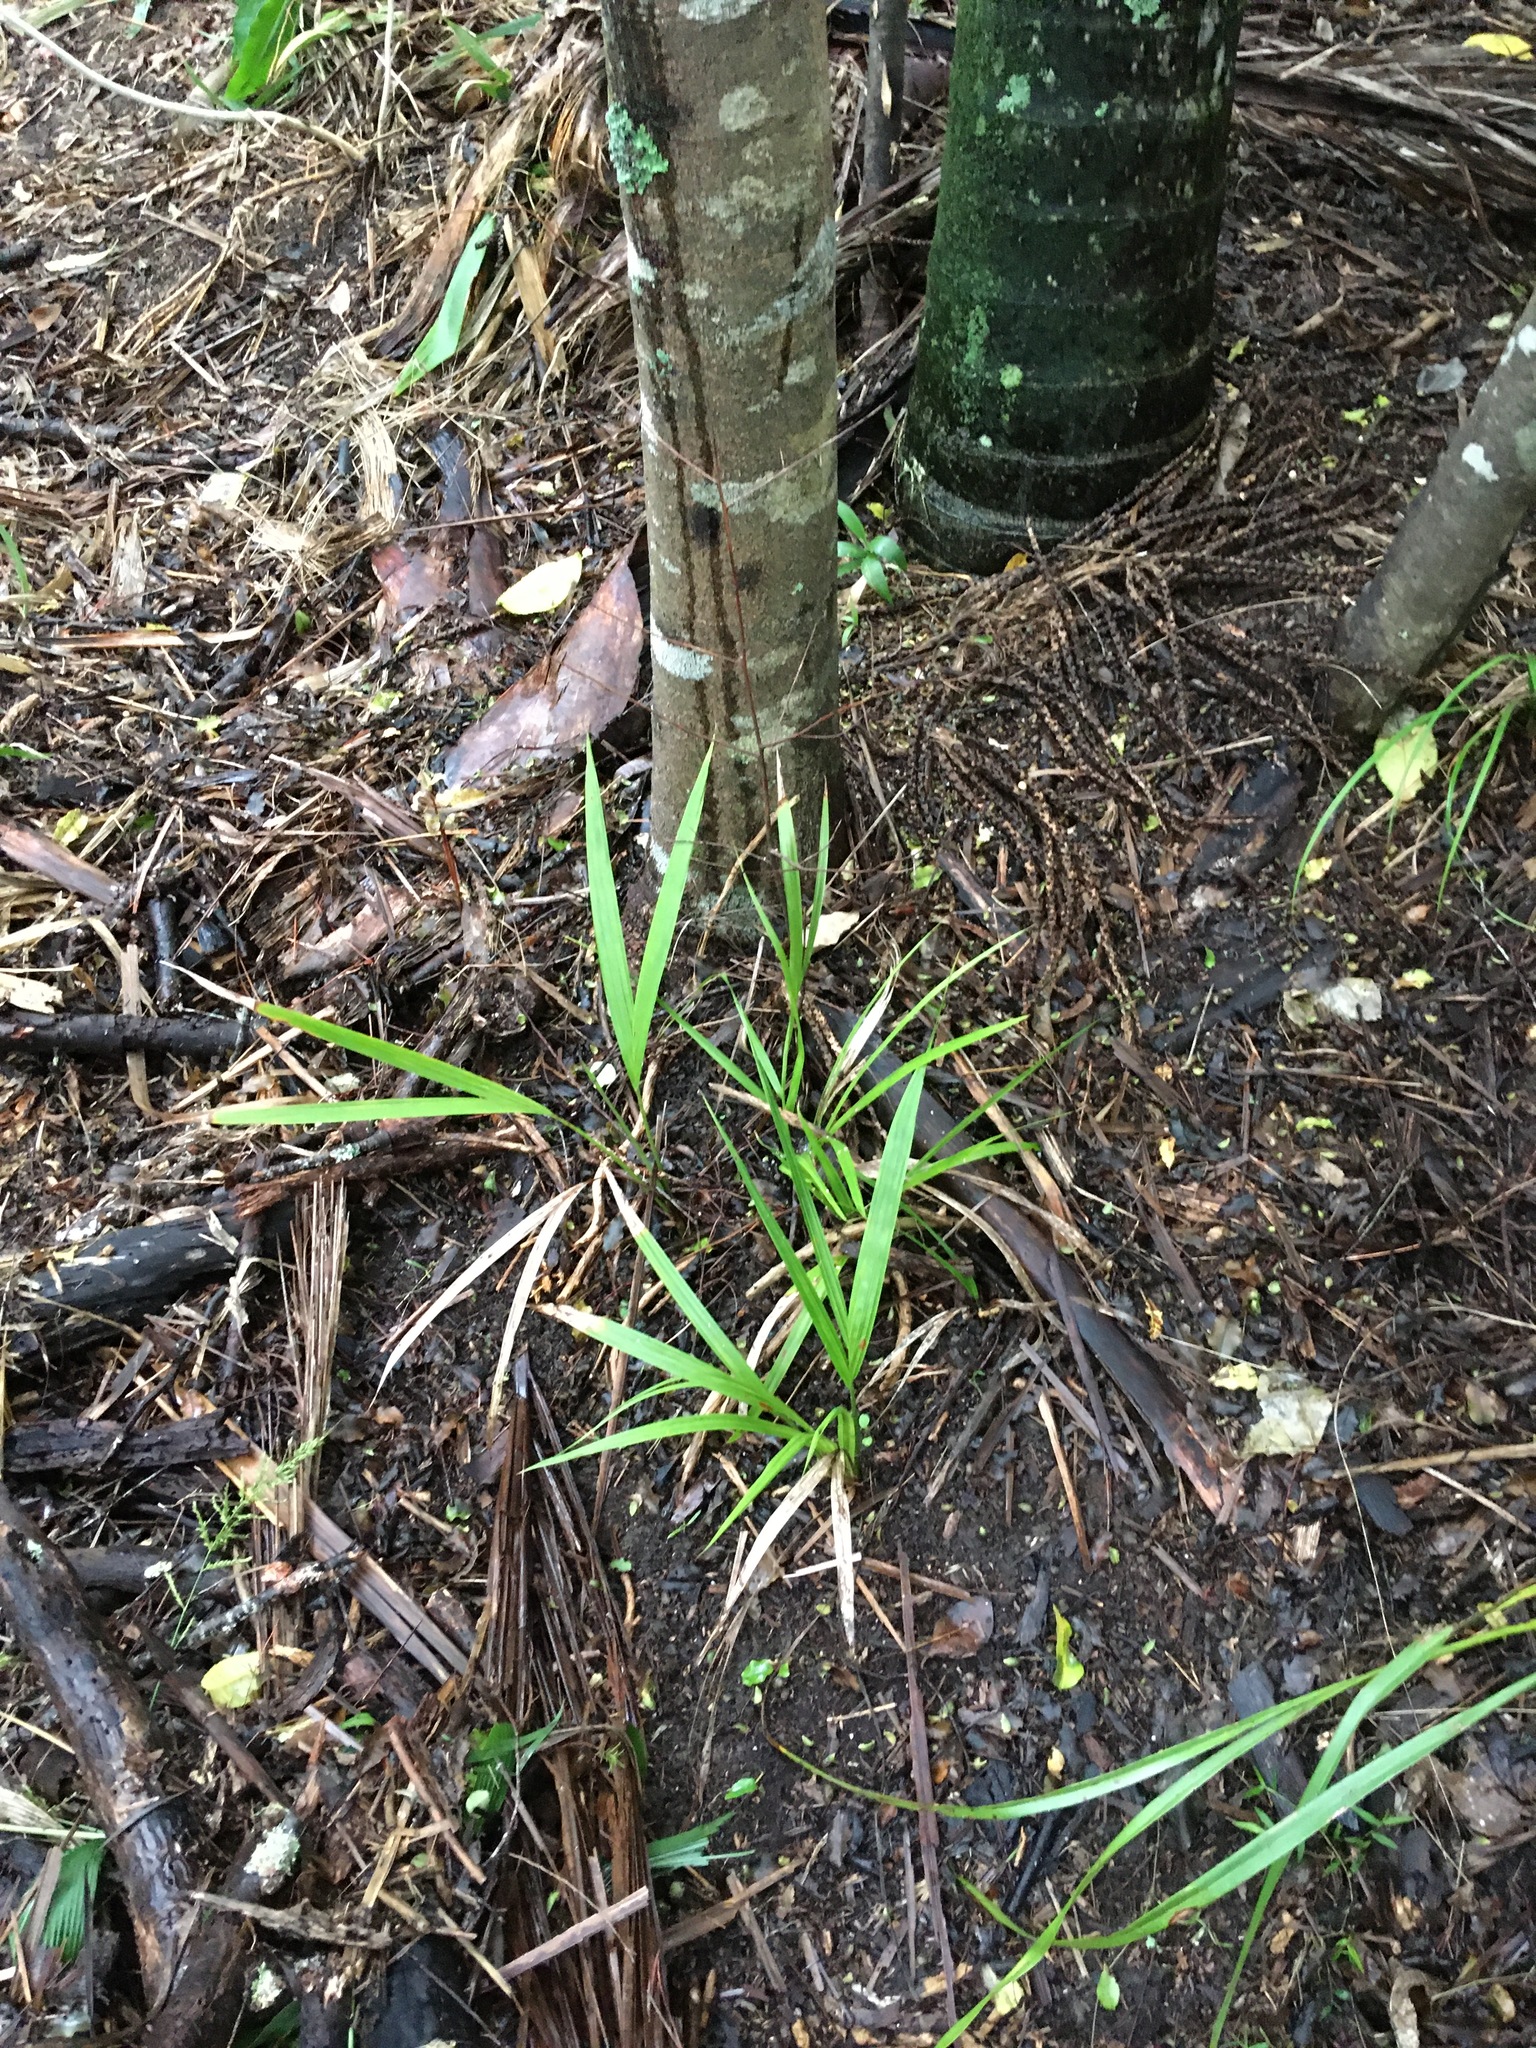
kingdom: Plantae
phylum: Tracheophyta
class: Liliopsida
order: Arecales
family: Arecaceae
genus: Rhopalostylis
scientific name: Rhopalostylis sapida
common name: Feather-duster palm
